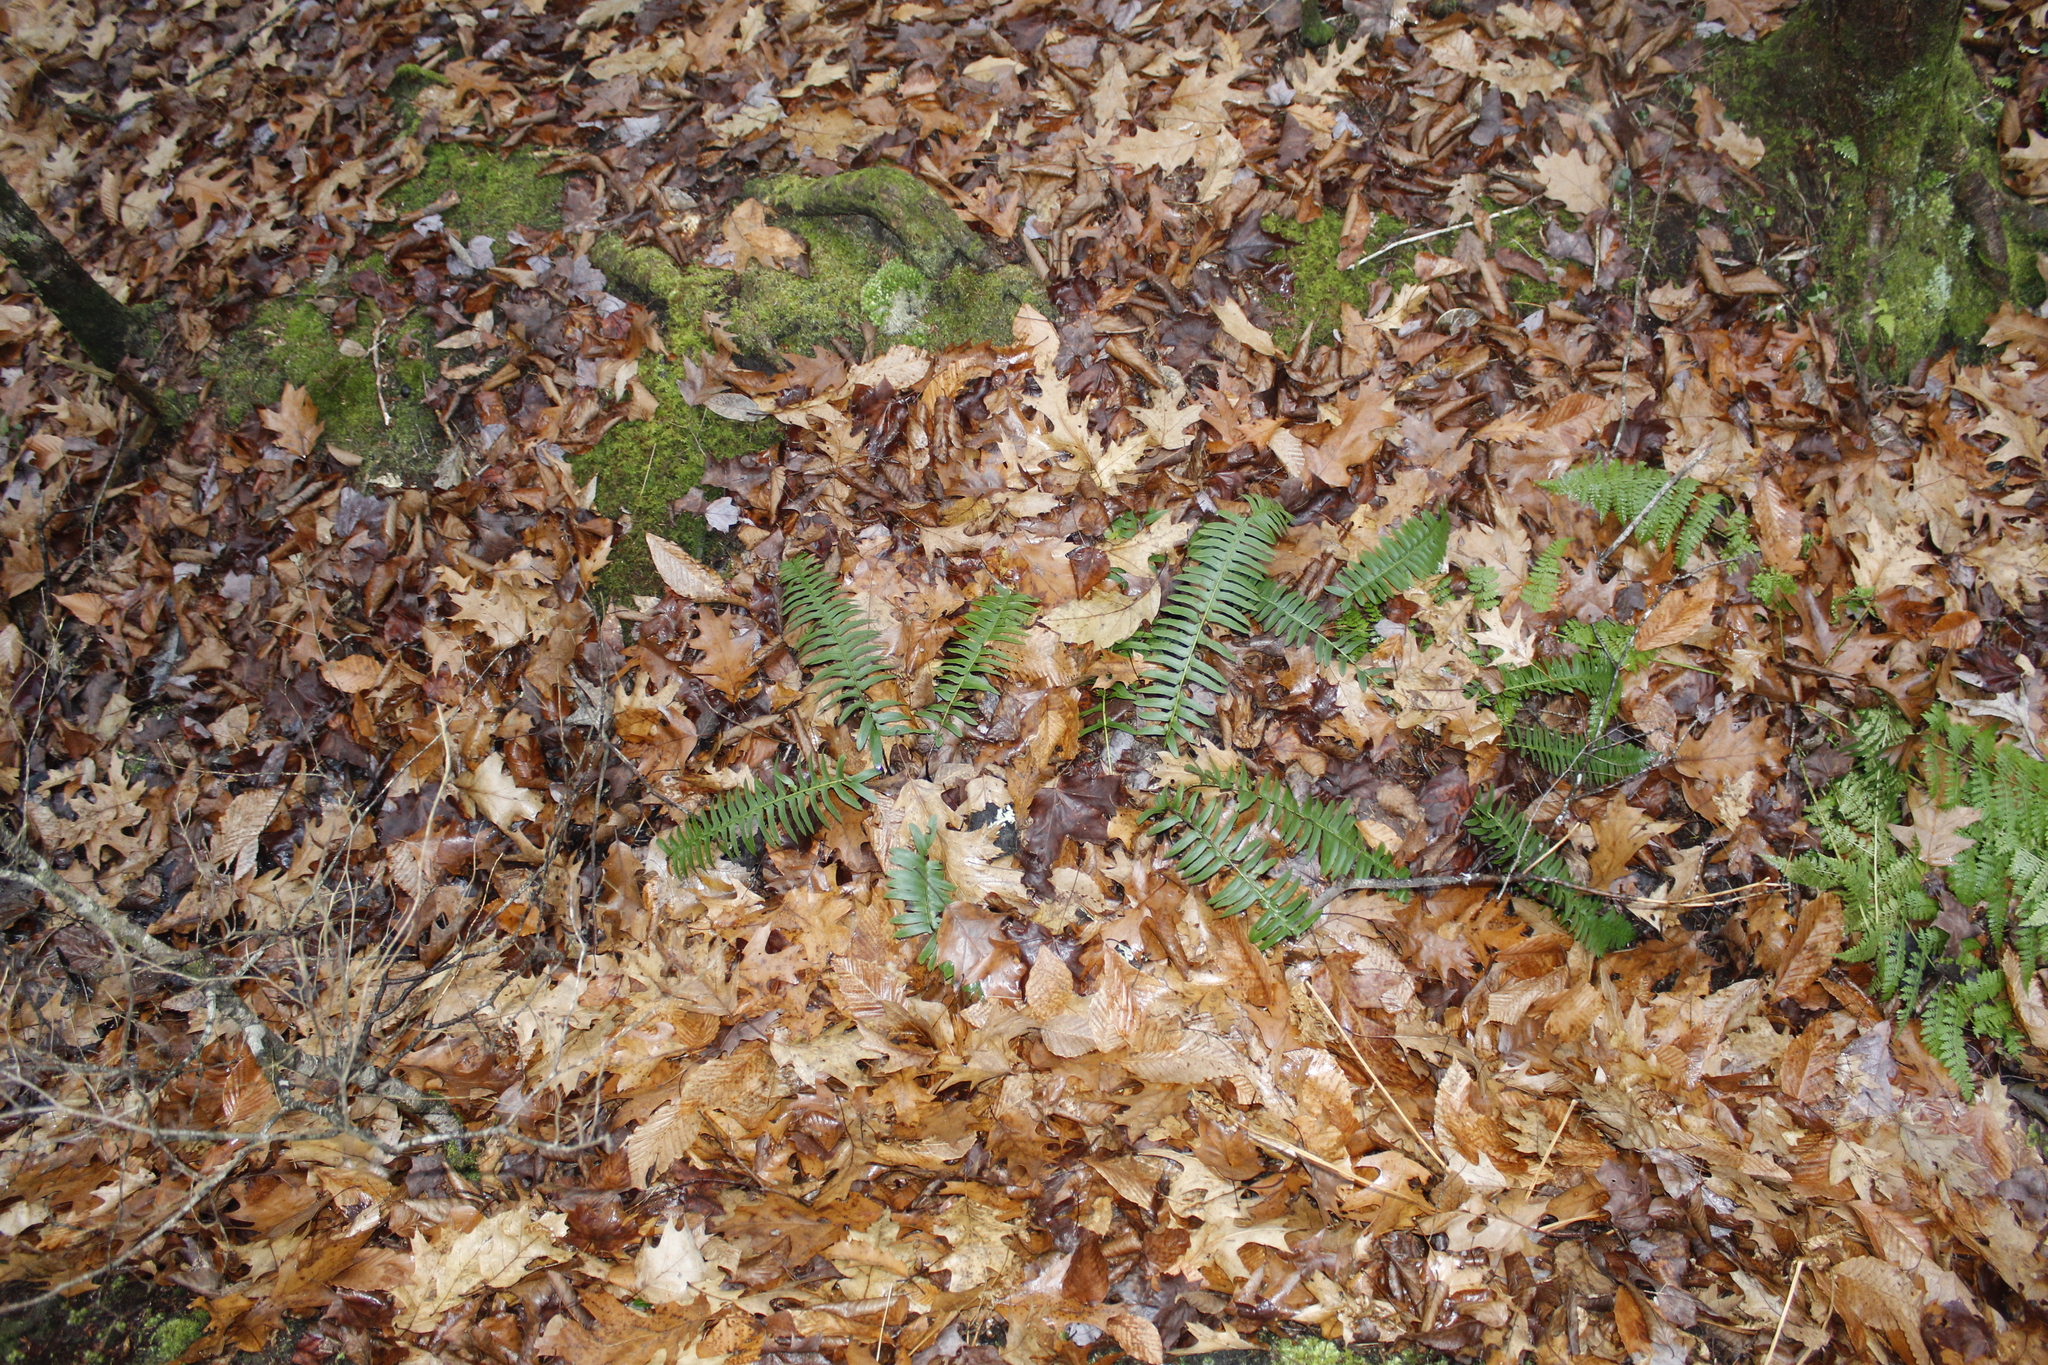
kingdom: Plantae
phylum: Tracheophyta
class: Polypodiopsida
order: Polypodiales
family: Dryopteridaceae
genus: Polystichum
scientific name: Polystichum acrostichoides
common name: Christmas fern
